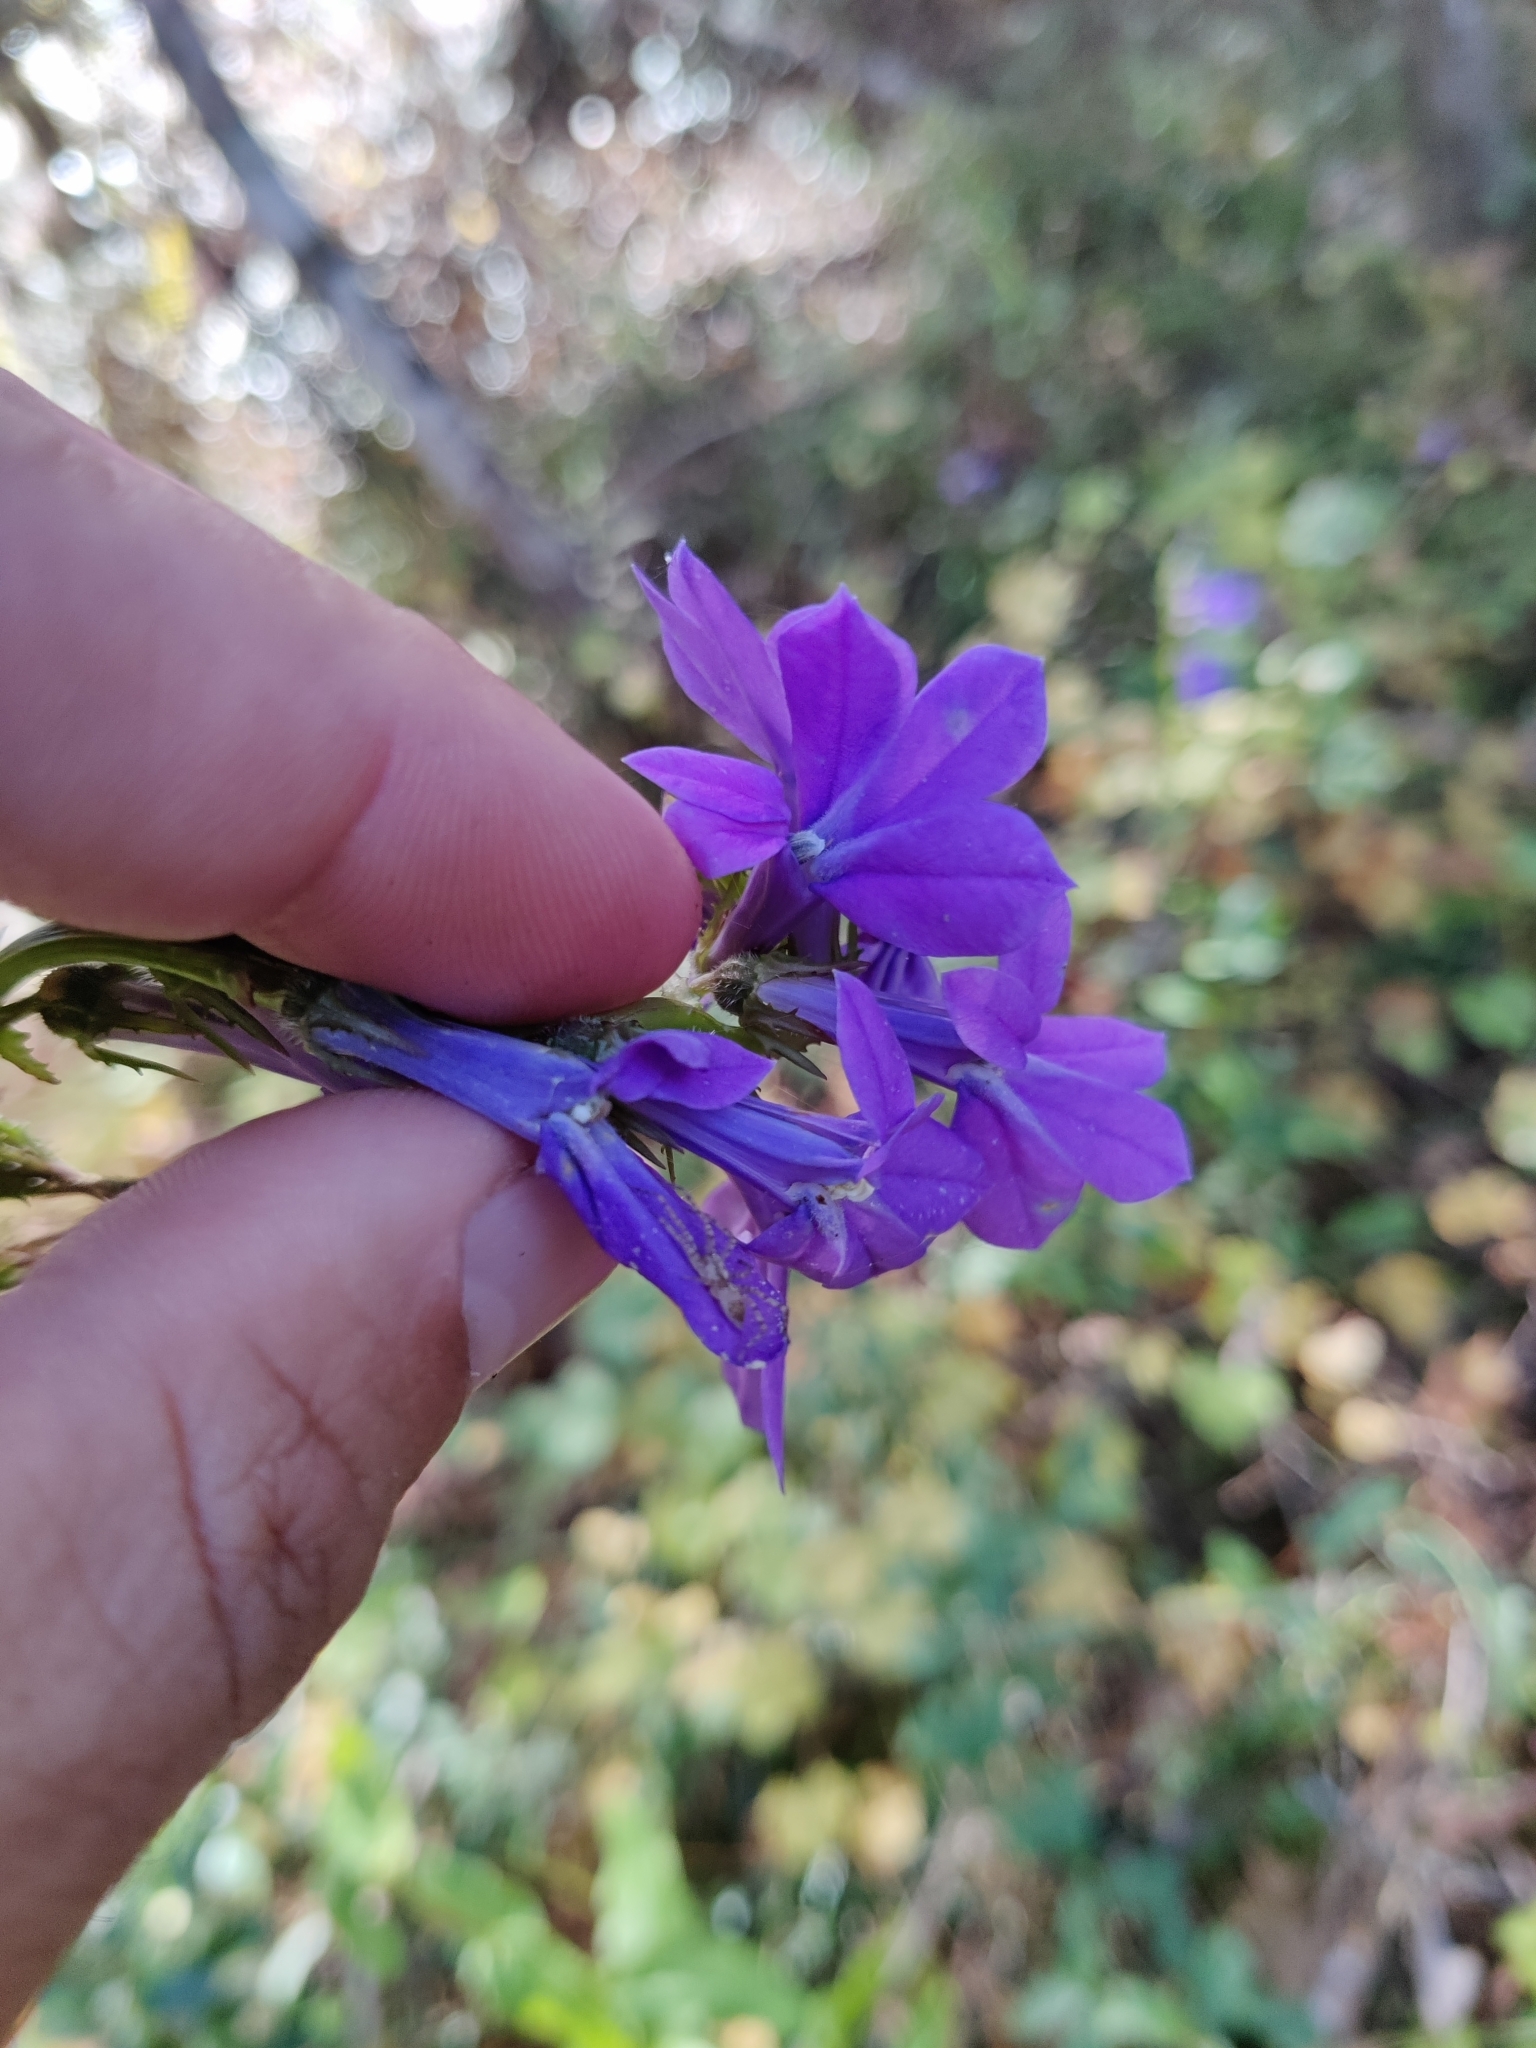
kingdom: Plantae
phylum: Tracheophyta
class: Magnoliopsida
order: Asterales
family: Campanulaceae
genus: Lobelia
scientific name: Lobelia apalachicolensis
